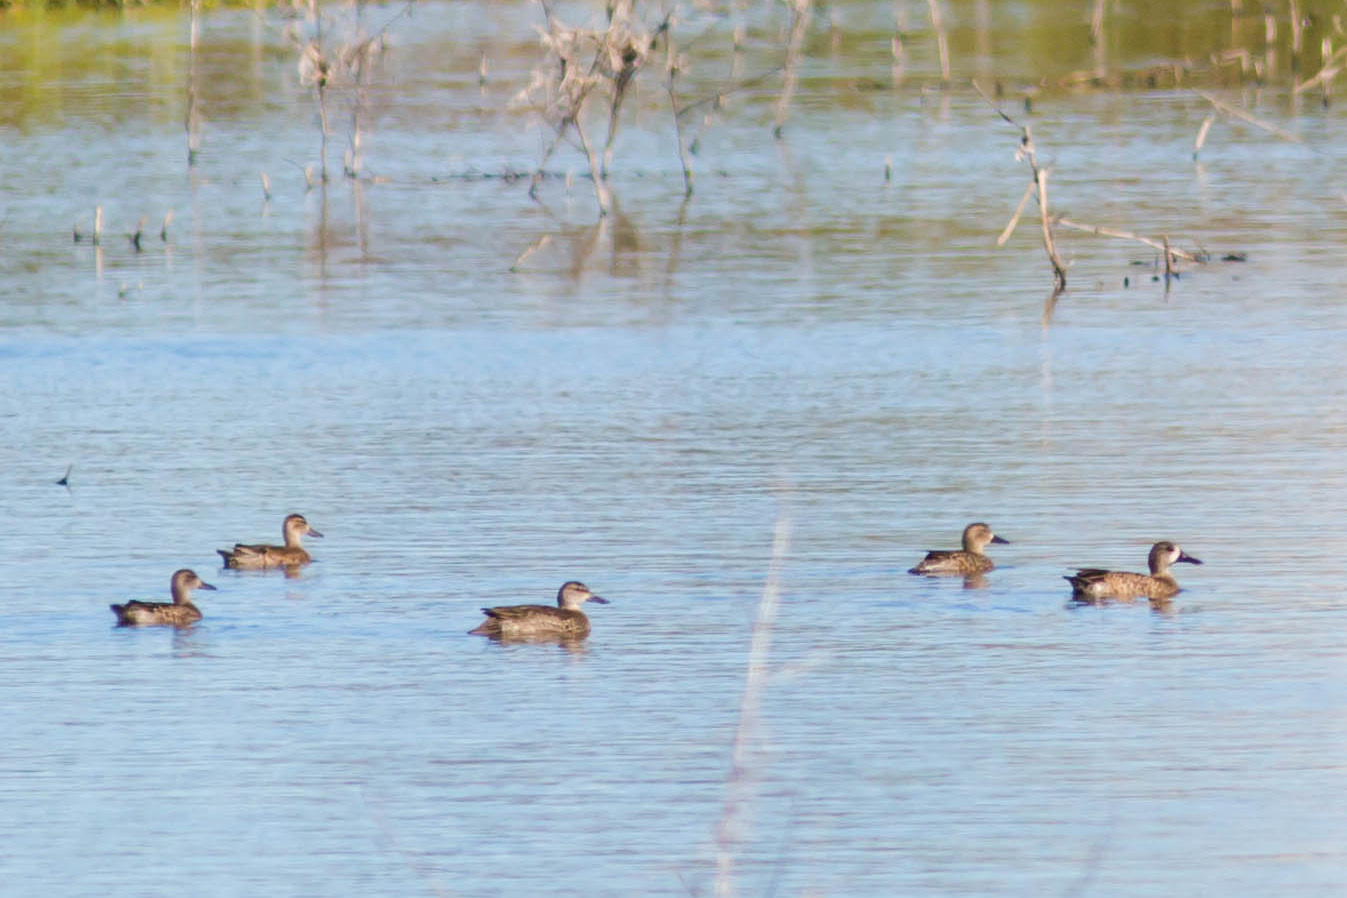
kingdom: Animalia
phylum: Chordata
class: Aves
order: Anseriformes
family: Anatidae
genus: Spatula
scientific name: Spatula discors
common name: Blue-winged teal
